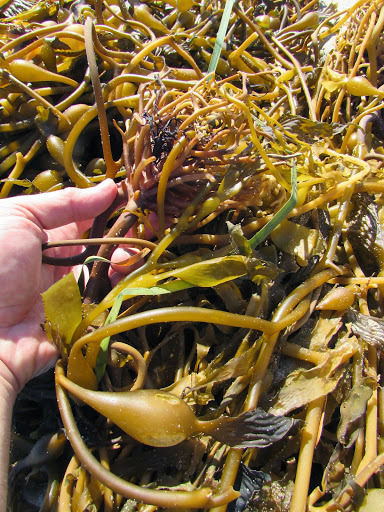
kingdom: Chromista
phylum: Ochrophyta
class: Phaeophyceae
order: Laminariales
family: Laminariaceae
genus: Macrocystis
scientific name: Macrocystis pyrifera
